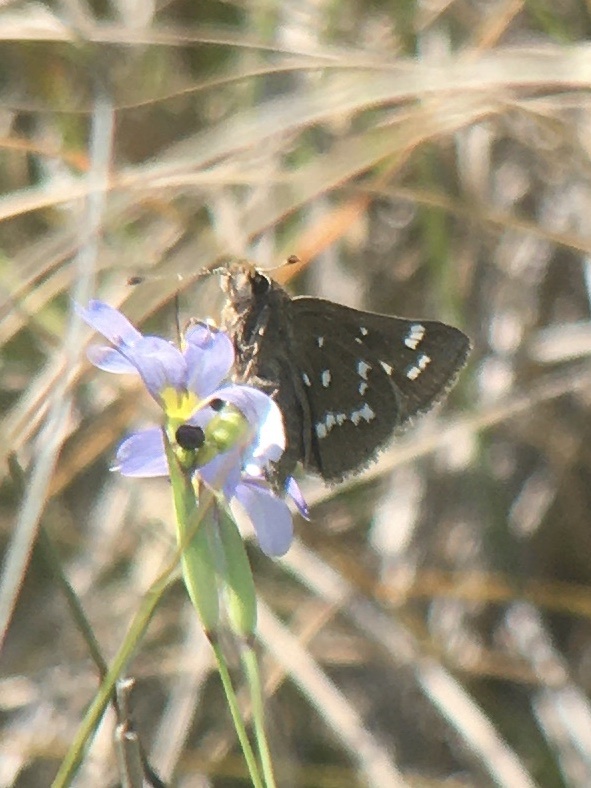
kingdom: Animalia
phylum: Arthropoda
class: Insecta
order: Lepidoptera
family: Hesperiidae
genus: Atrytonopsis
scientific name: Atrytonopsis quinteri
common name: Crystal skipper
